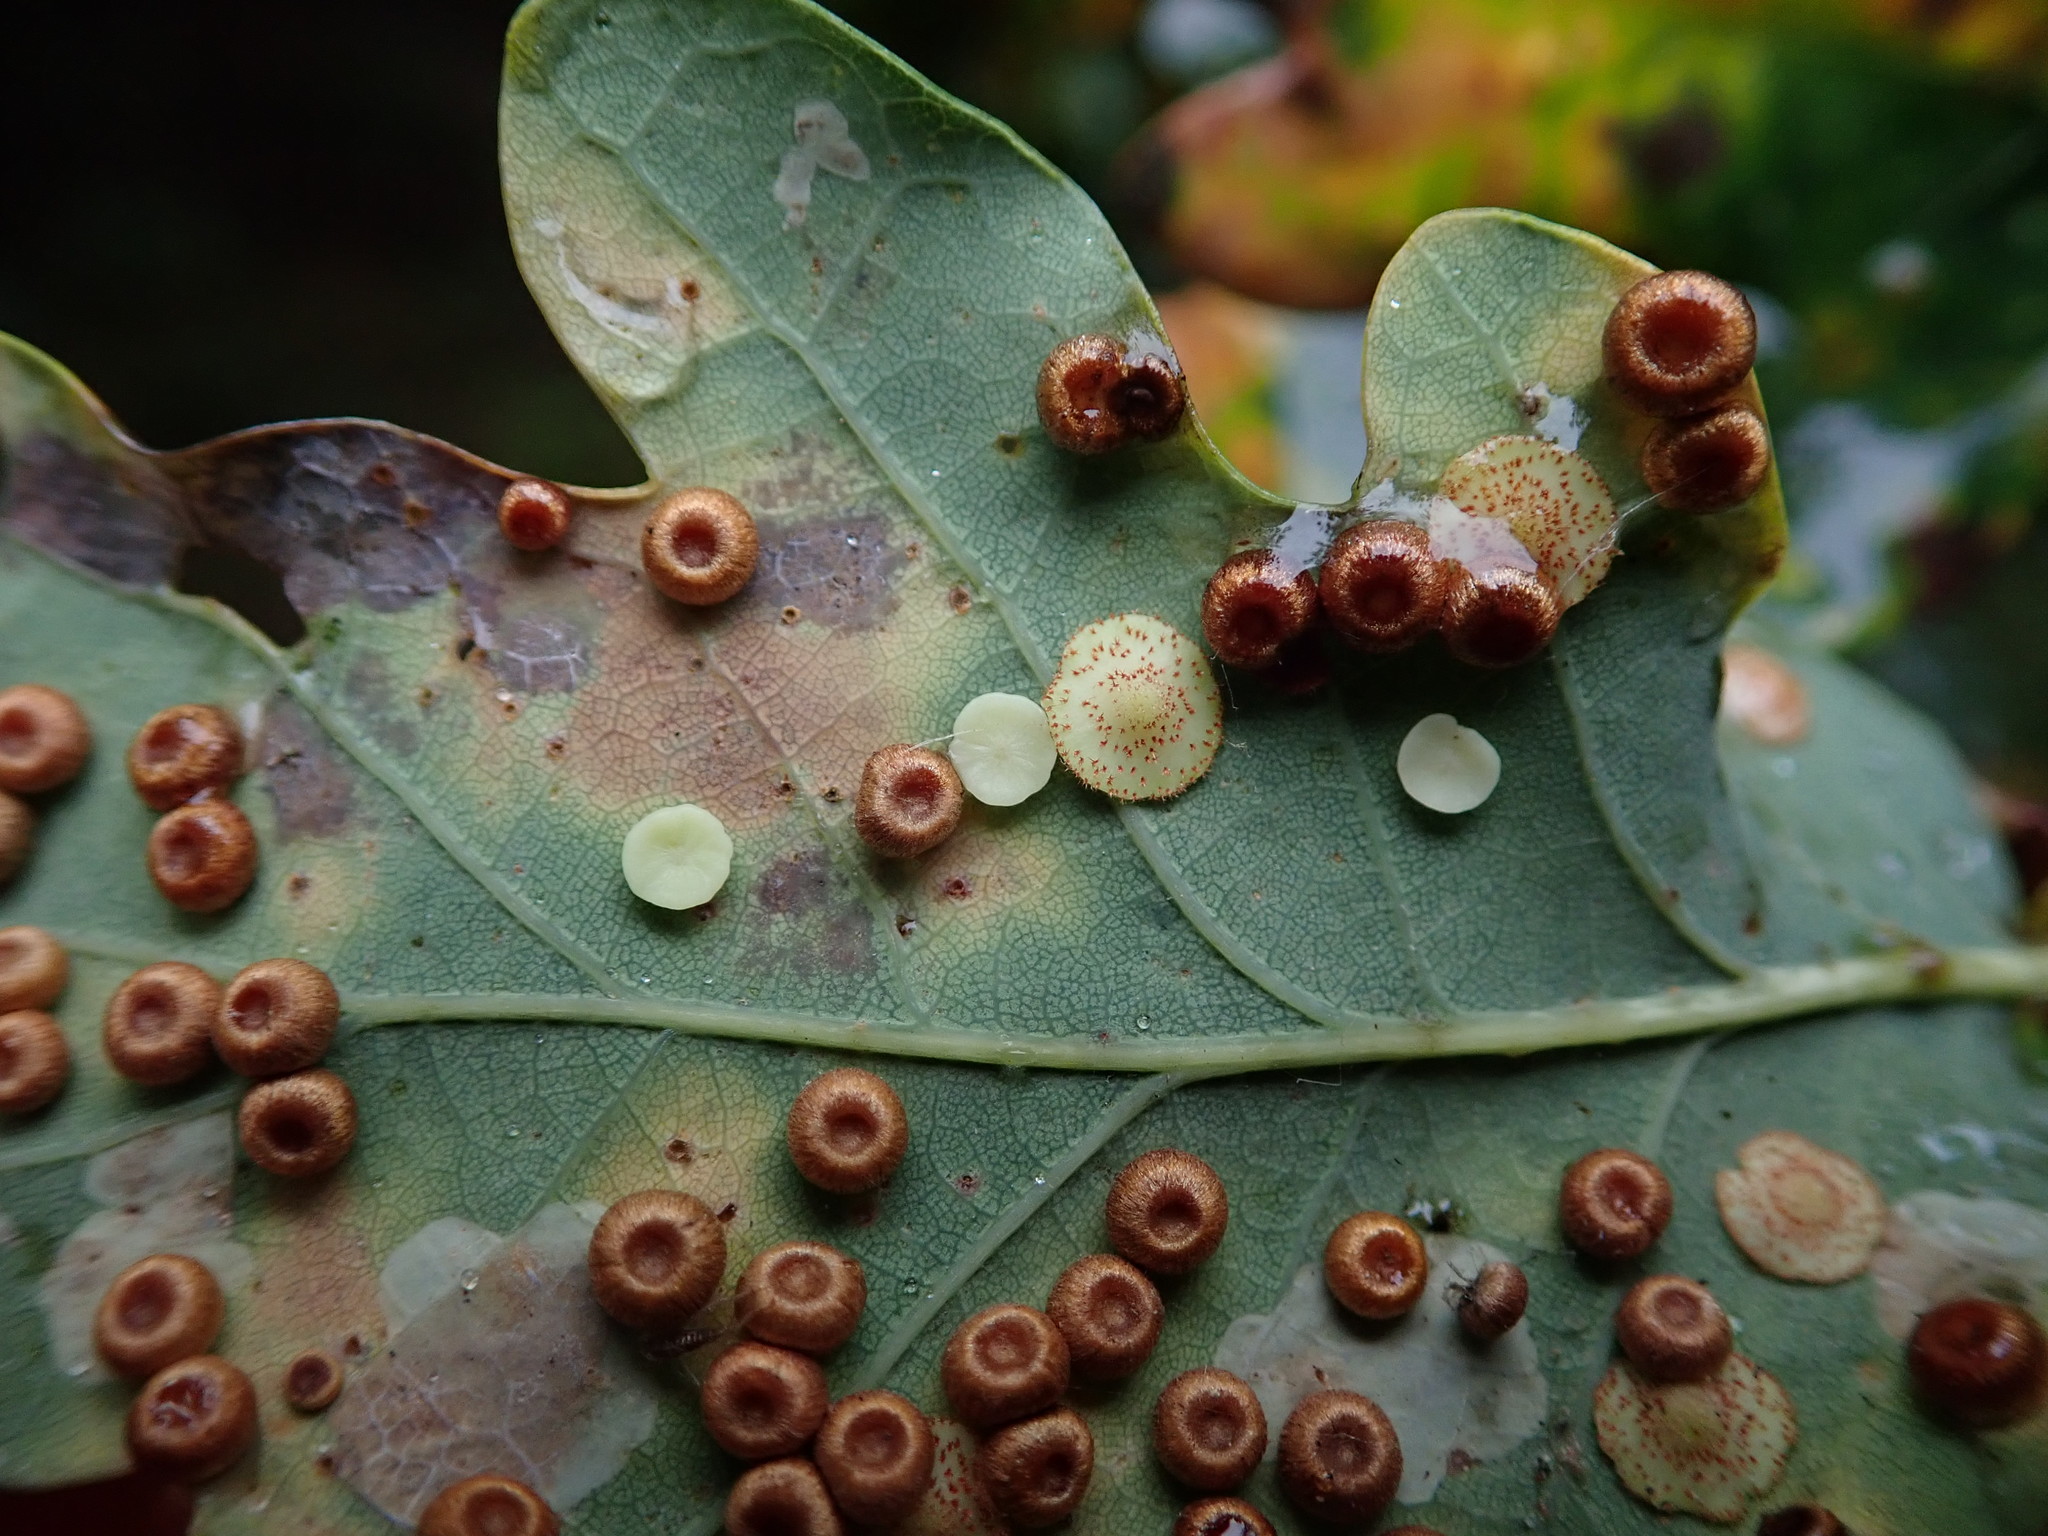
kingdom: Animalia
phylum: Arthropoda
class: Insecta
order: Hymenoptera
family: Cynipidae
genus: Neuroterus
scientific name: Neuroterus quercusbaccarum
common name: Common spangle gall
